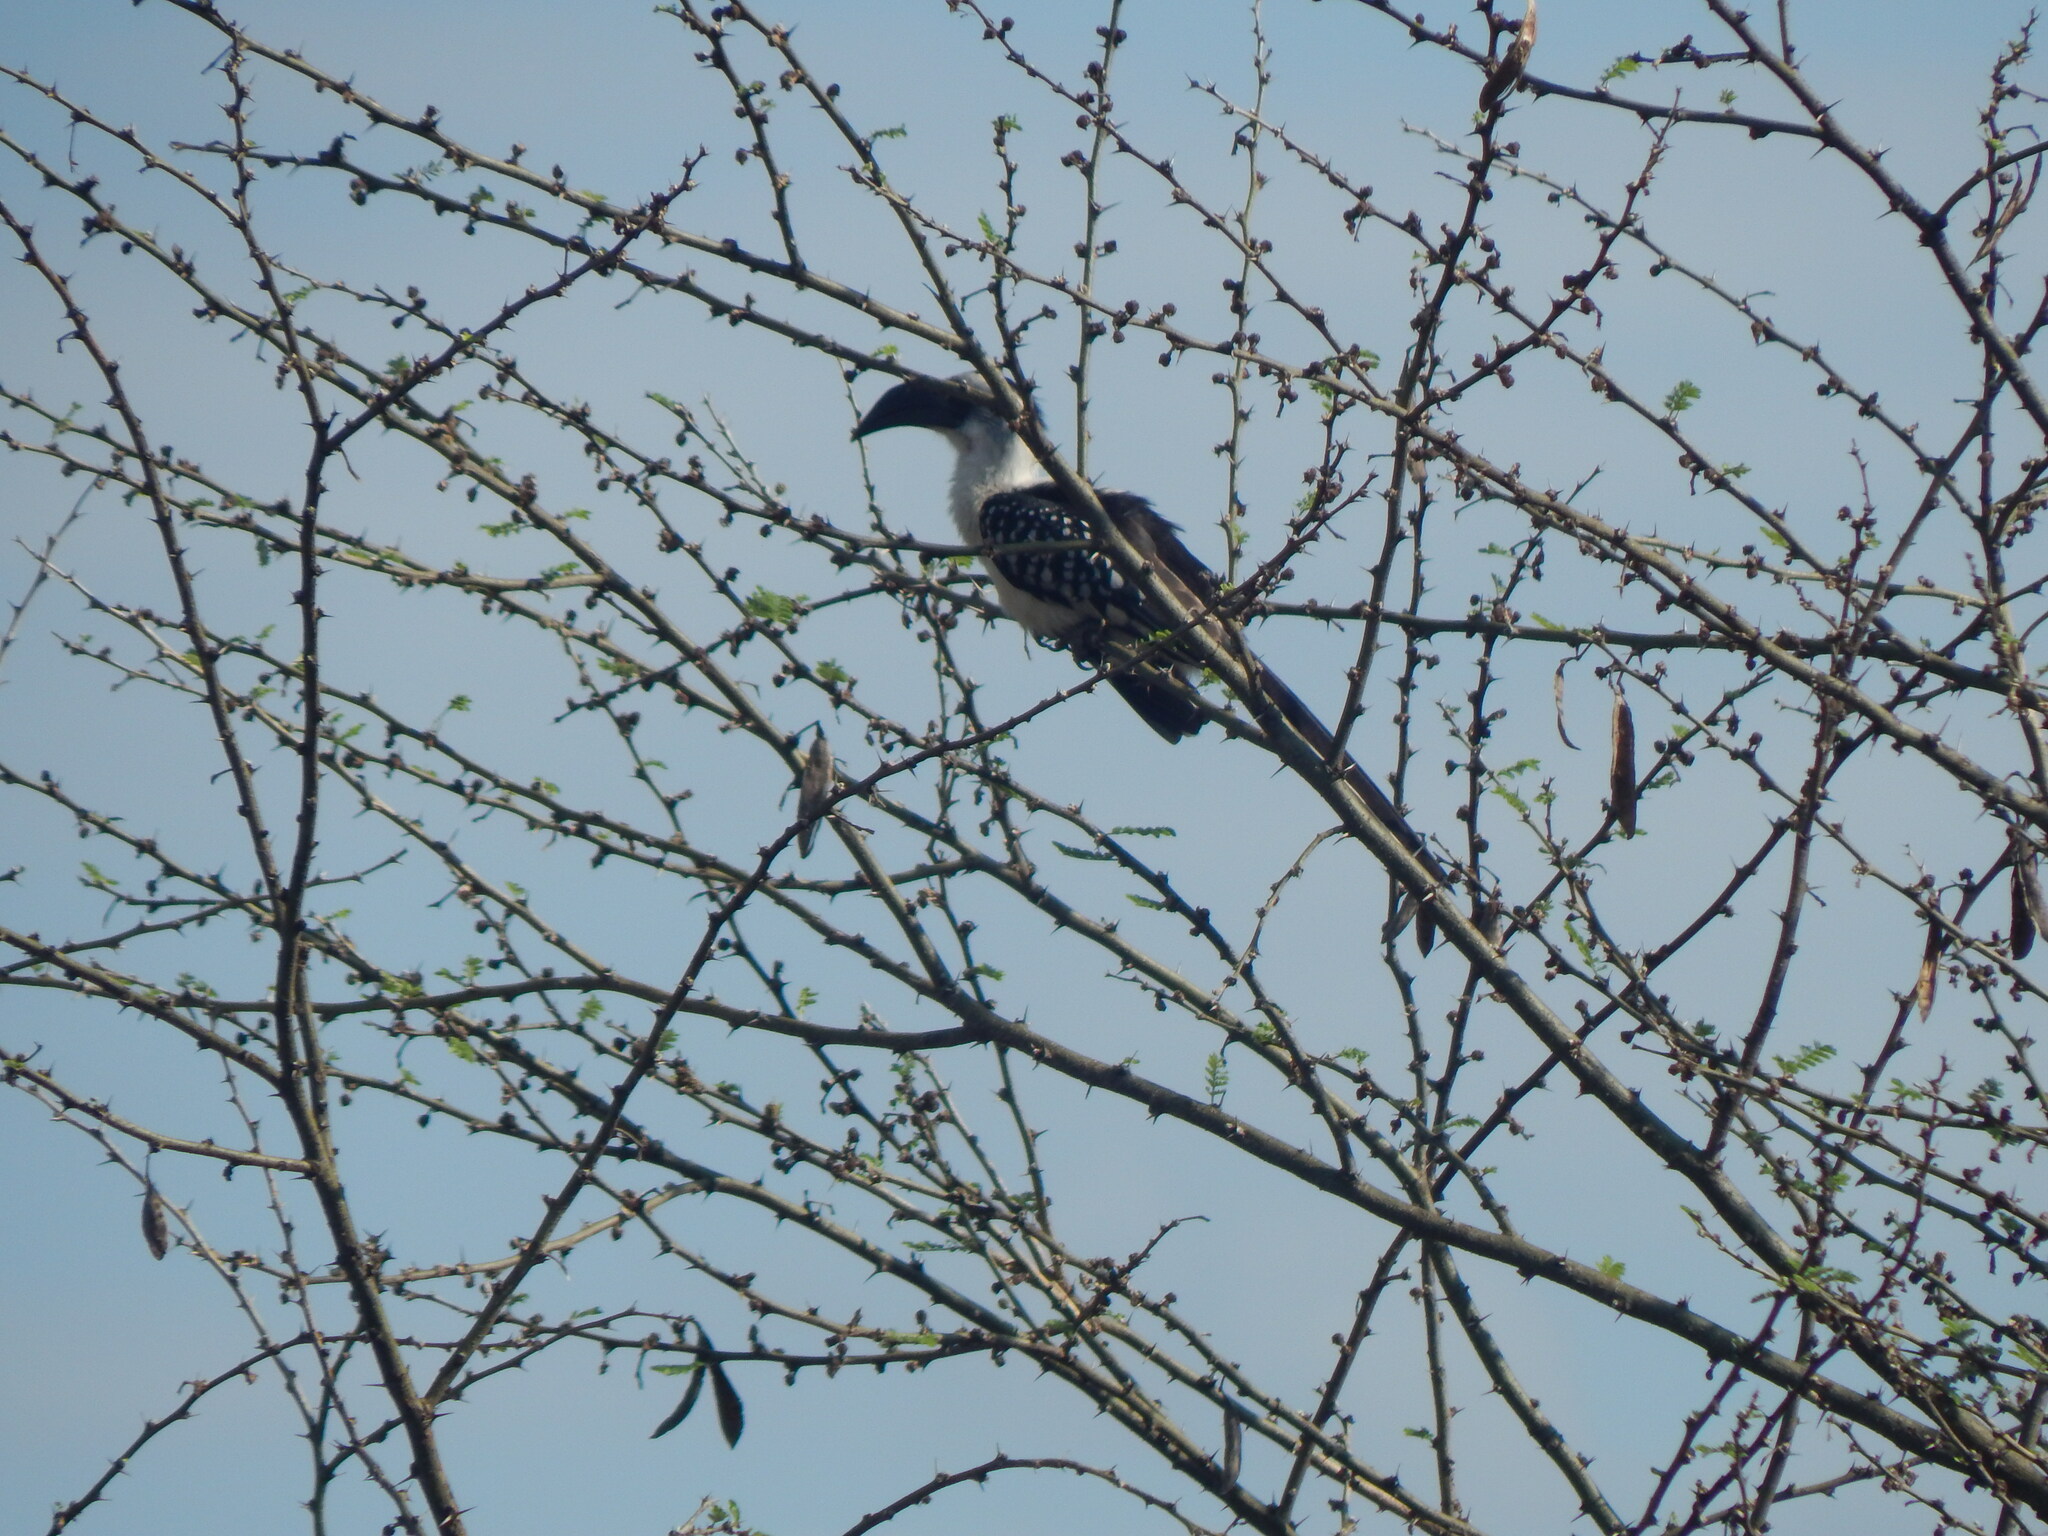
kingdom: Animalia
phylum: Chordata
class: Aves
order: Bucerotiformes
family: Bucerotidae
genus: Tockus
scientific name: Tockus jacksoni
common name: Jackson's hornbill
